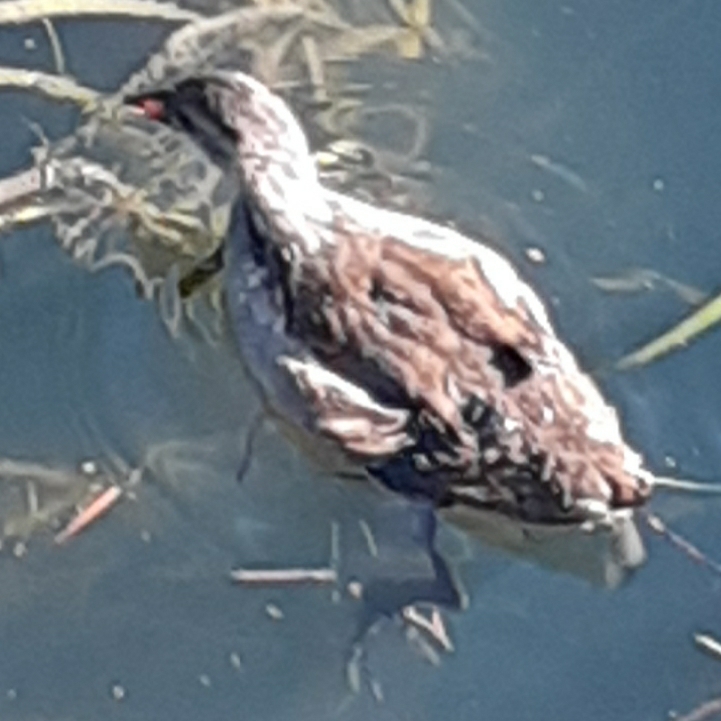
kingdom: Animalia
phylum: Chordata
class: Aves
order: Gruiformes
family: Rallidae
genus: Gallinula
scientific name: Gallinula chloropus
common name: Common moorhen
